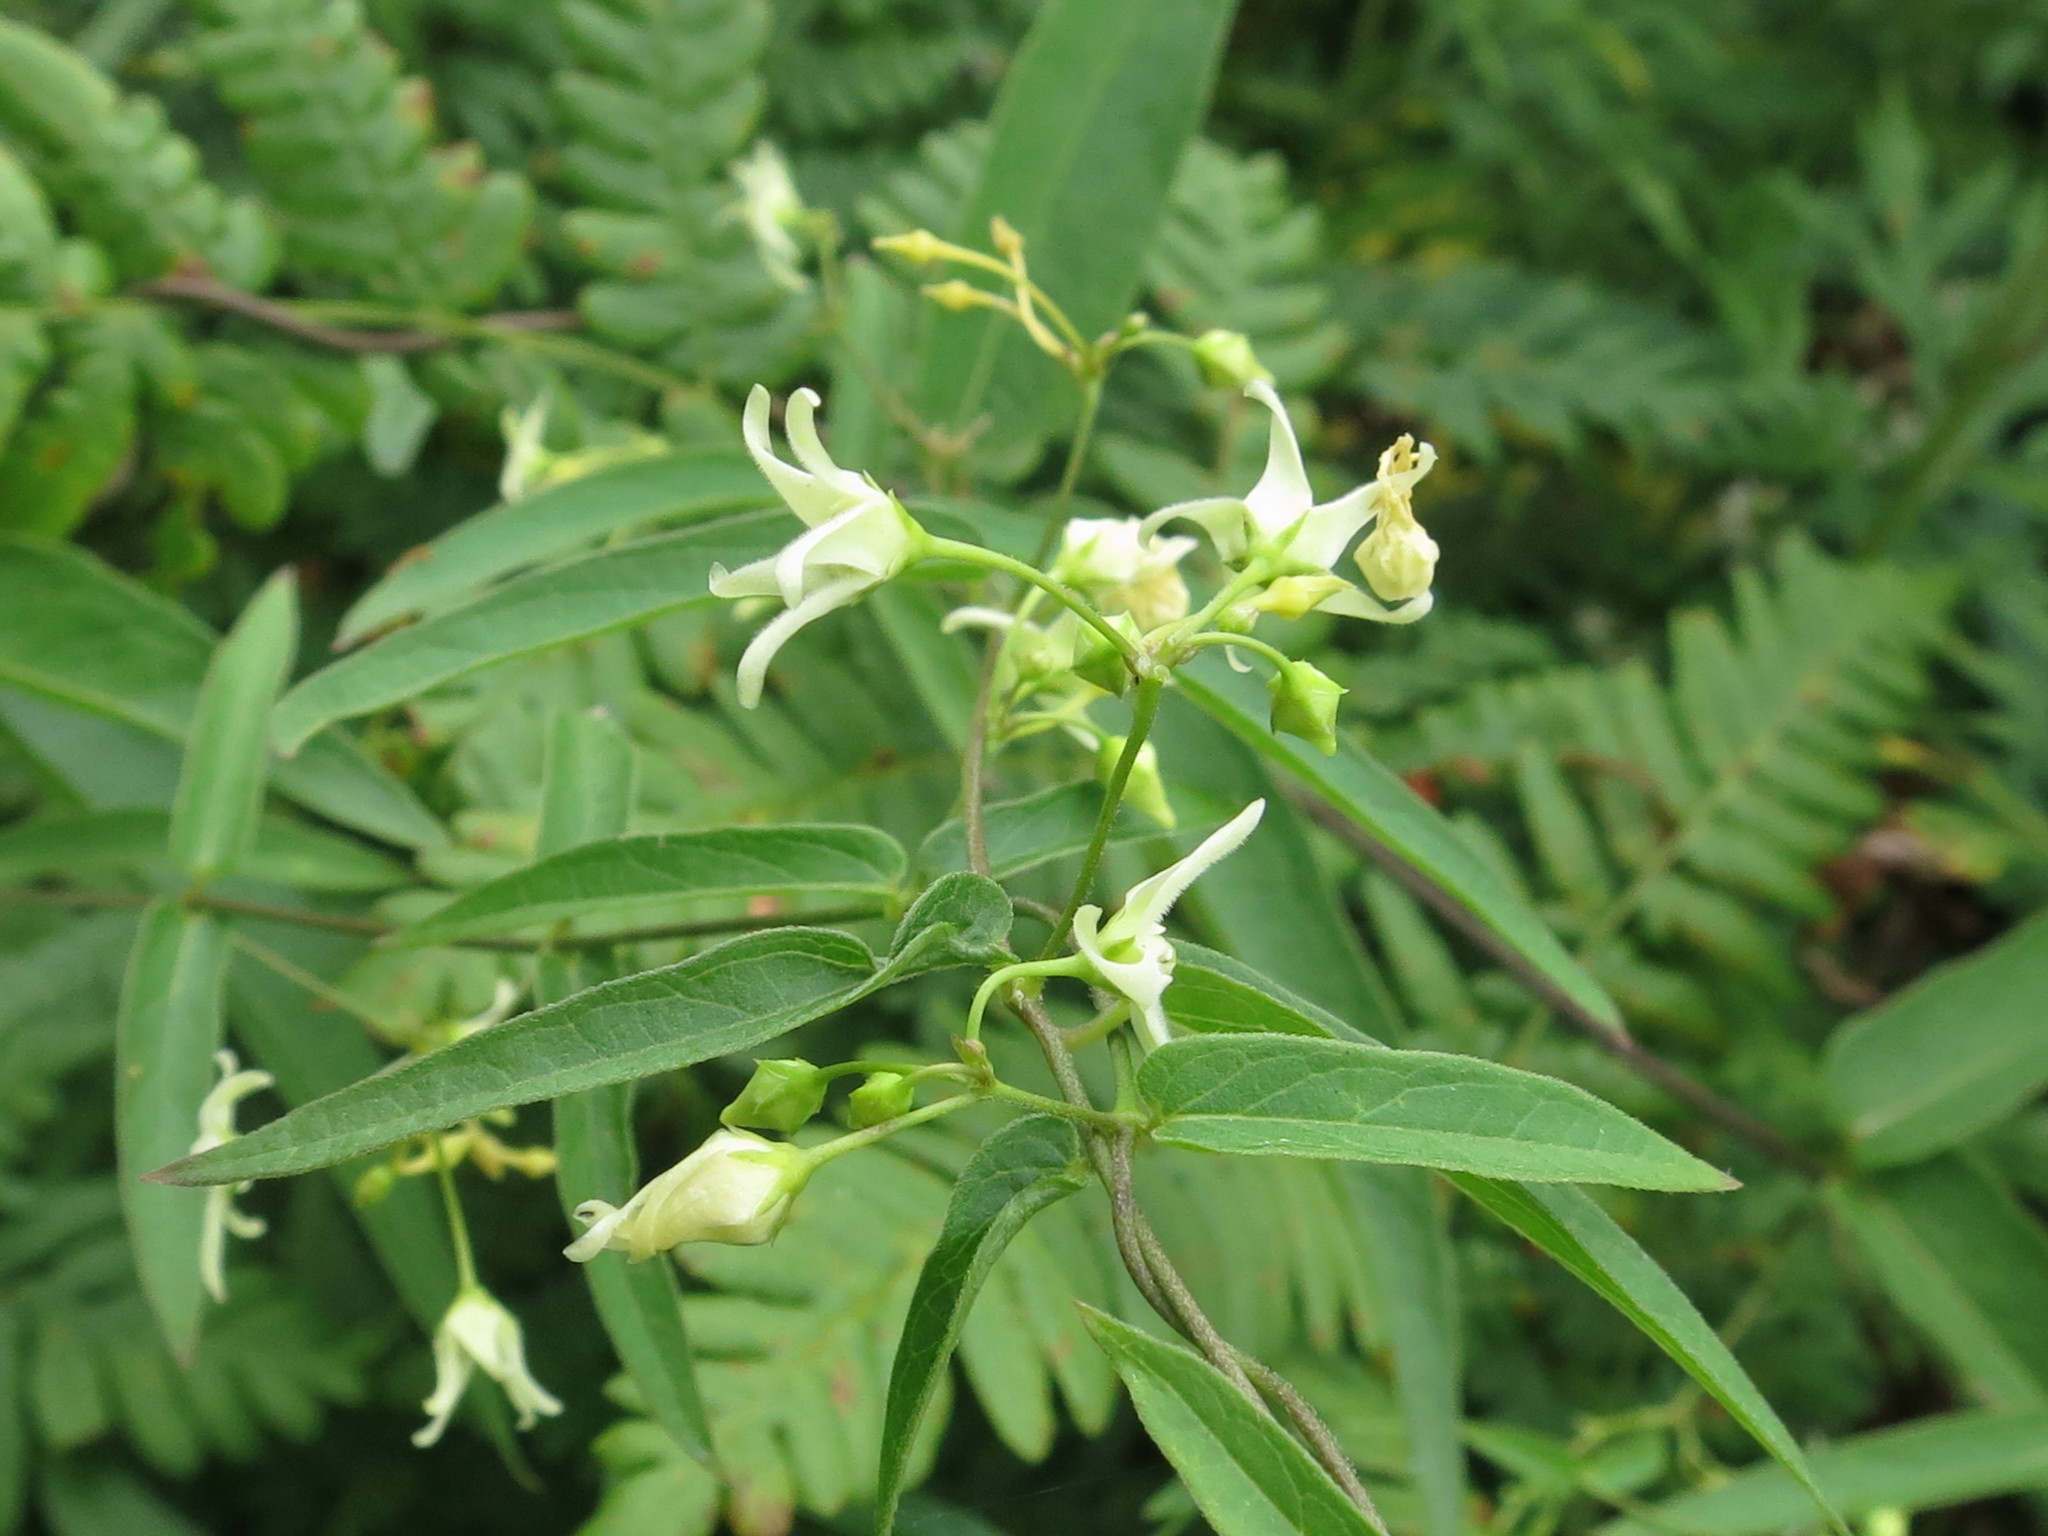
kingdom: Plantae
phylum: Tracheophyta
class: Magnoliopsida
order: Gentianales
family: Apocynaceae
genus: Vincetoxicum
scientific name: Vincetoxicum volubile
